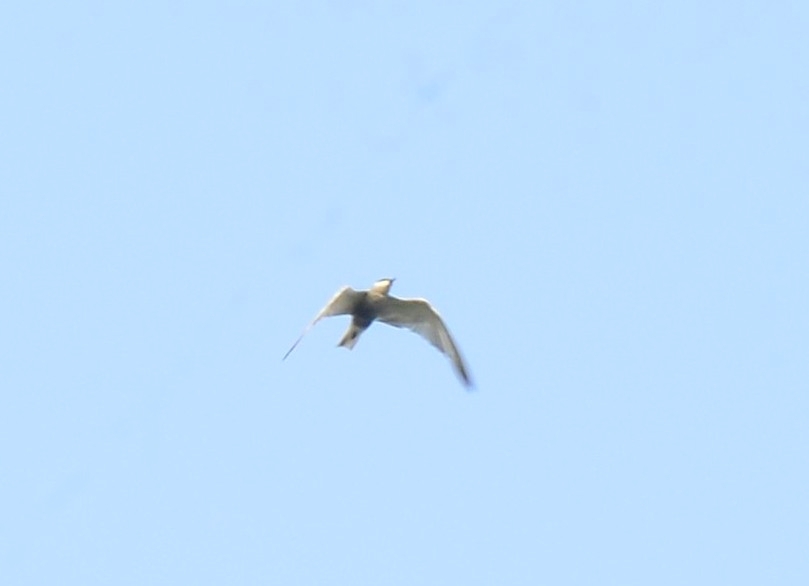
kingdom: Animalia
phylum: Chordata
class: Aves
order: Charadriiformes
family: Laridae
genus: Chlidonias
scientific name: Chlidonias hybrida
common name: Whiskered tern
